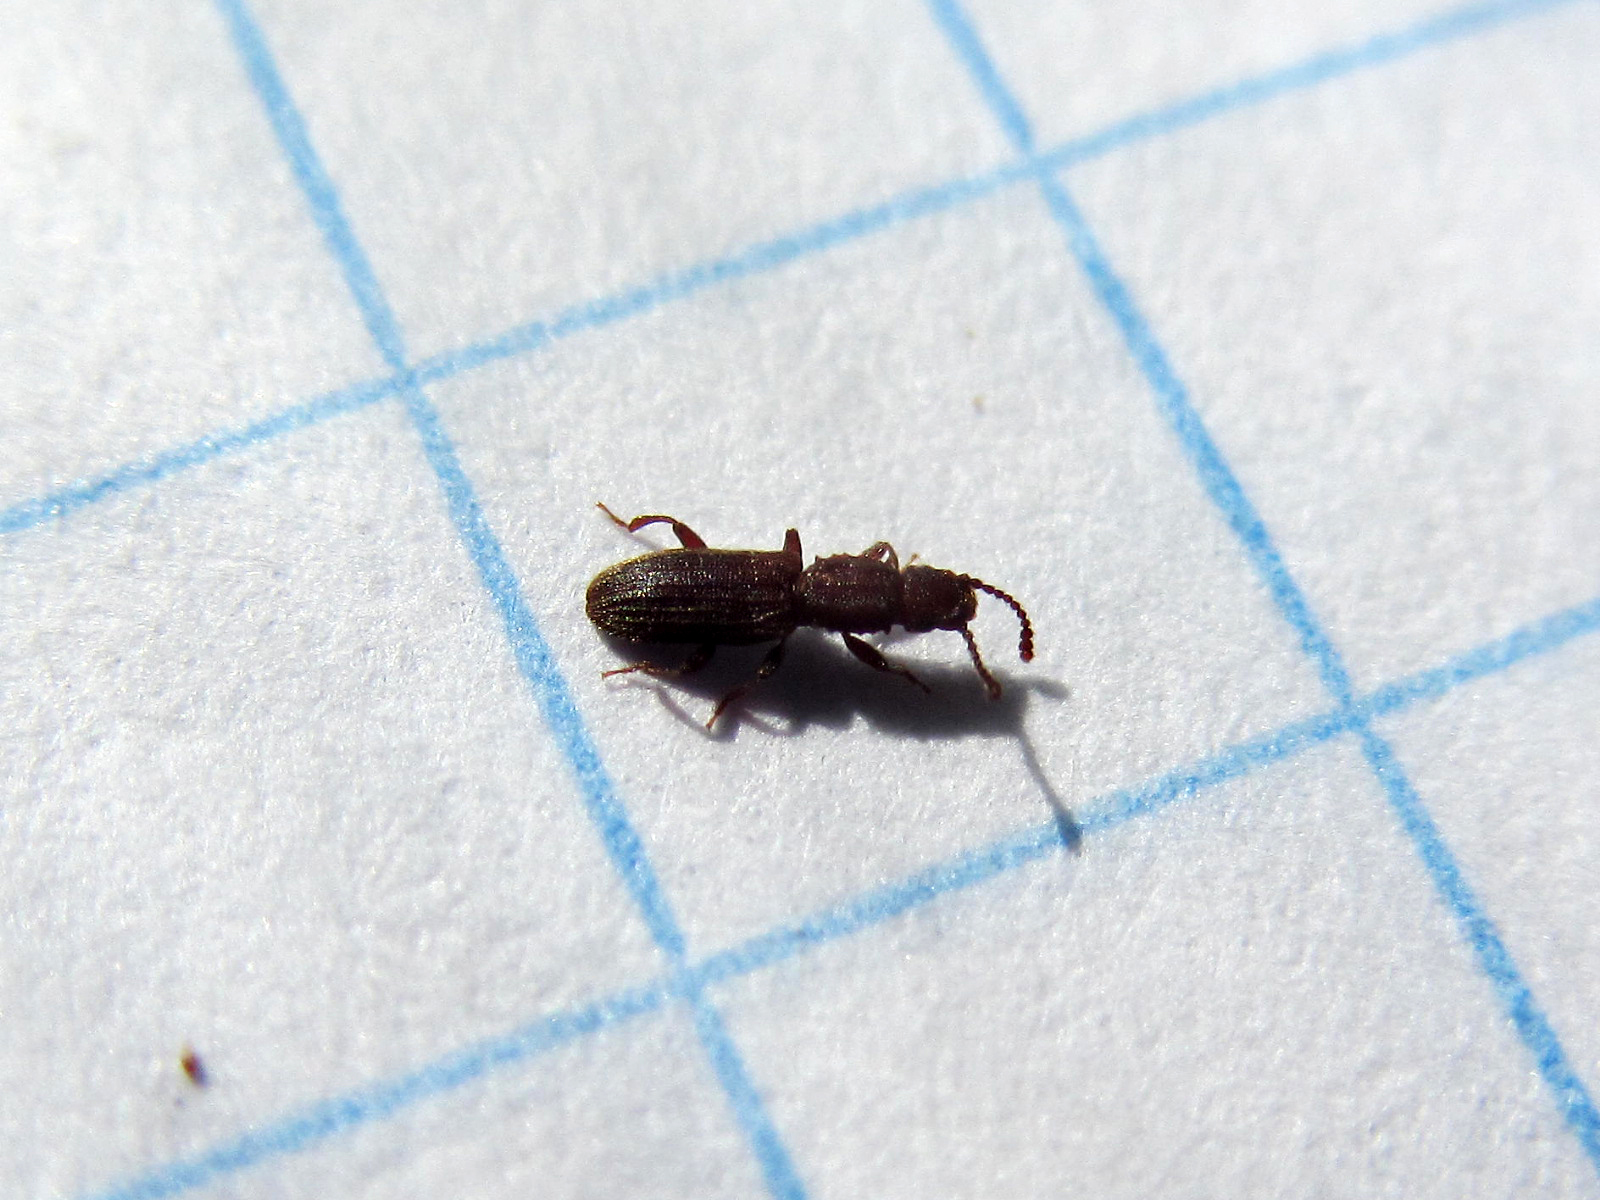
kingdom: Animalia
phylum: Arthropoda
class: Insecta
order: Coleoptera
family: Silvanidae
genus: Oryzaephilus
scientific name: Oryzaephilus surinamensis
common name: Sawtoothed grain beetle
